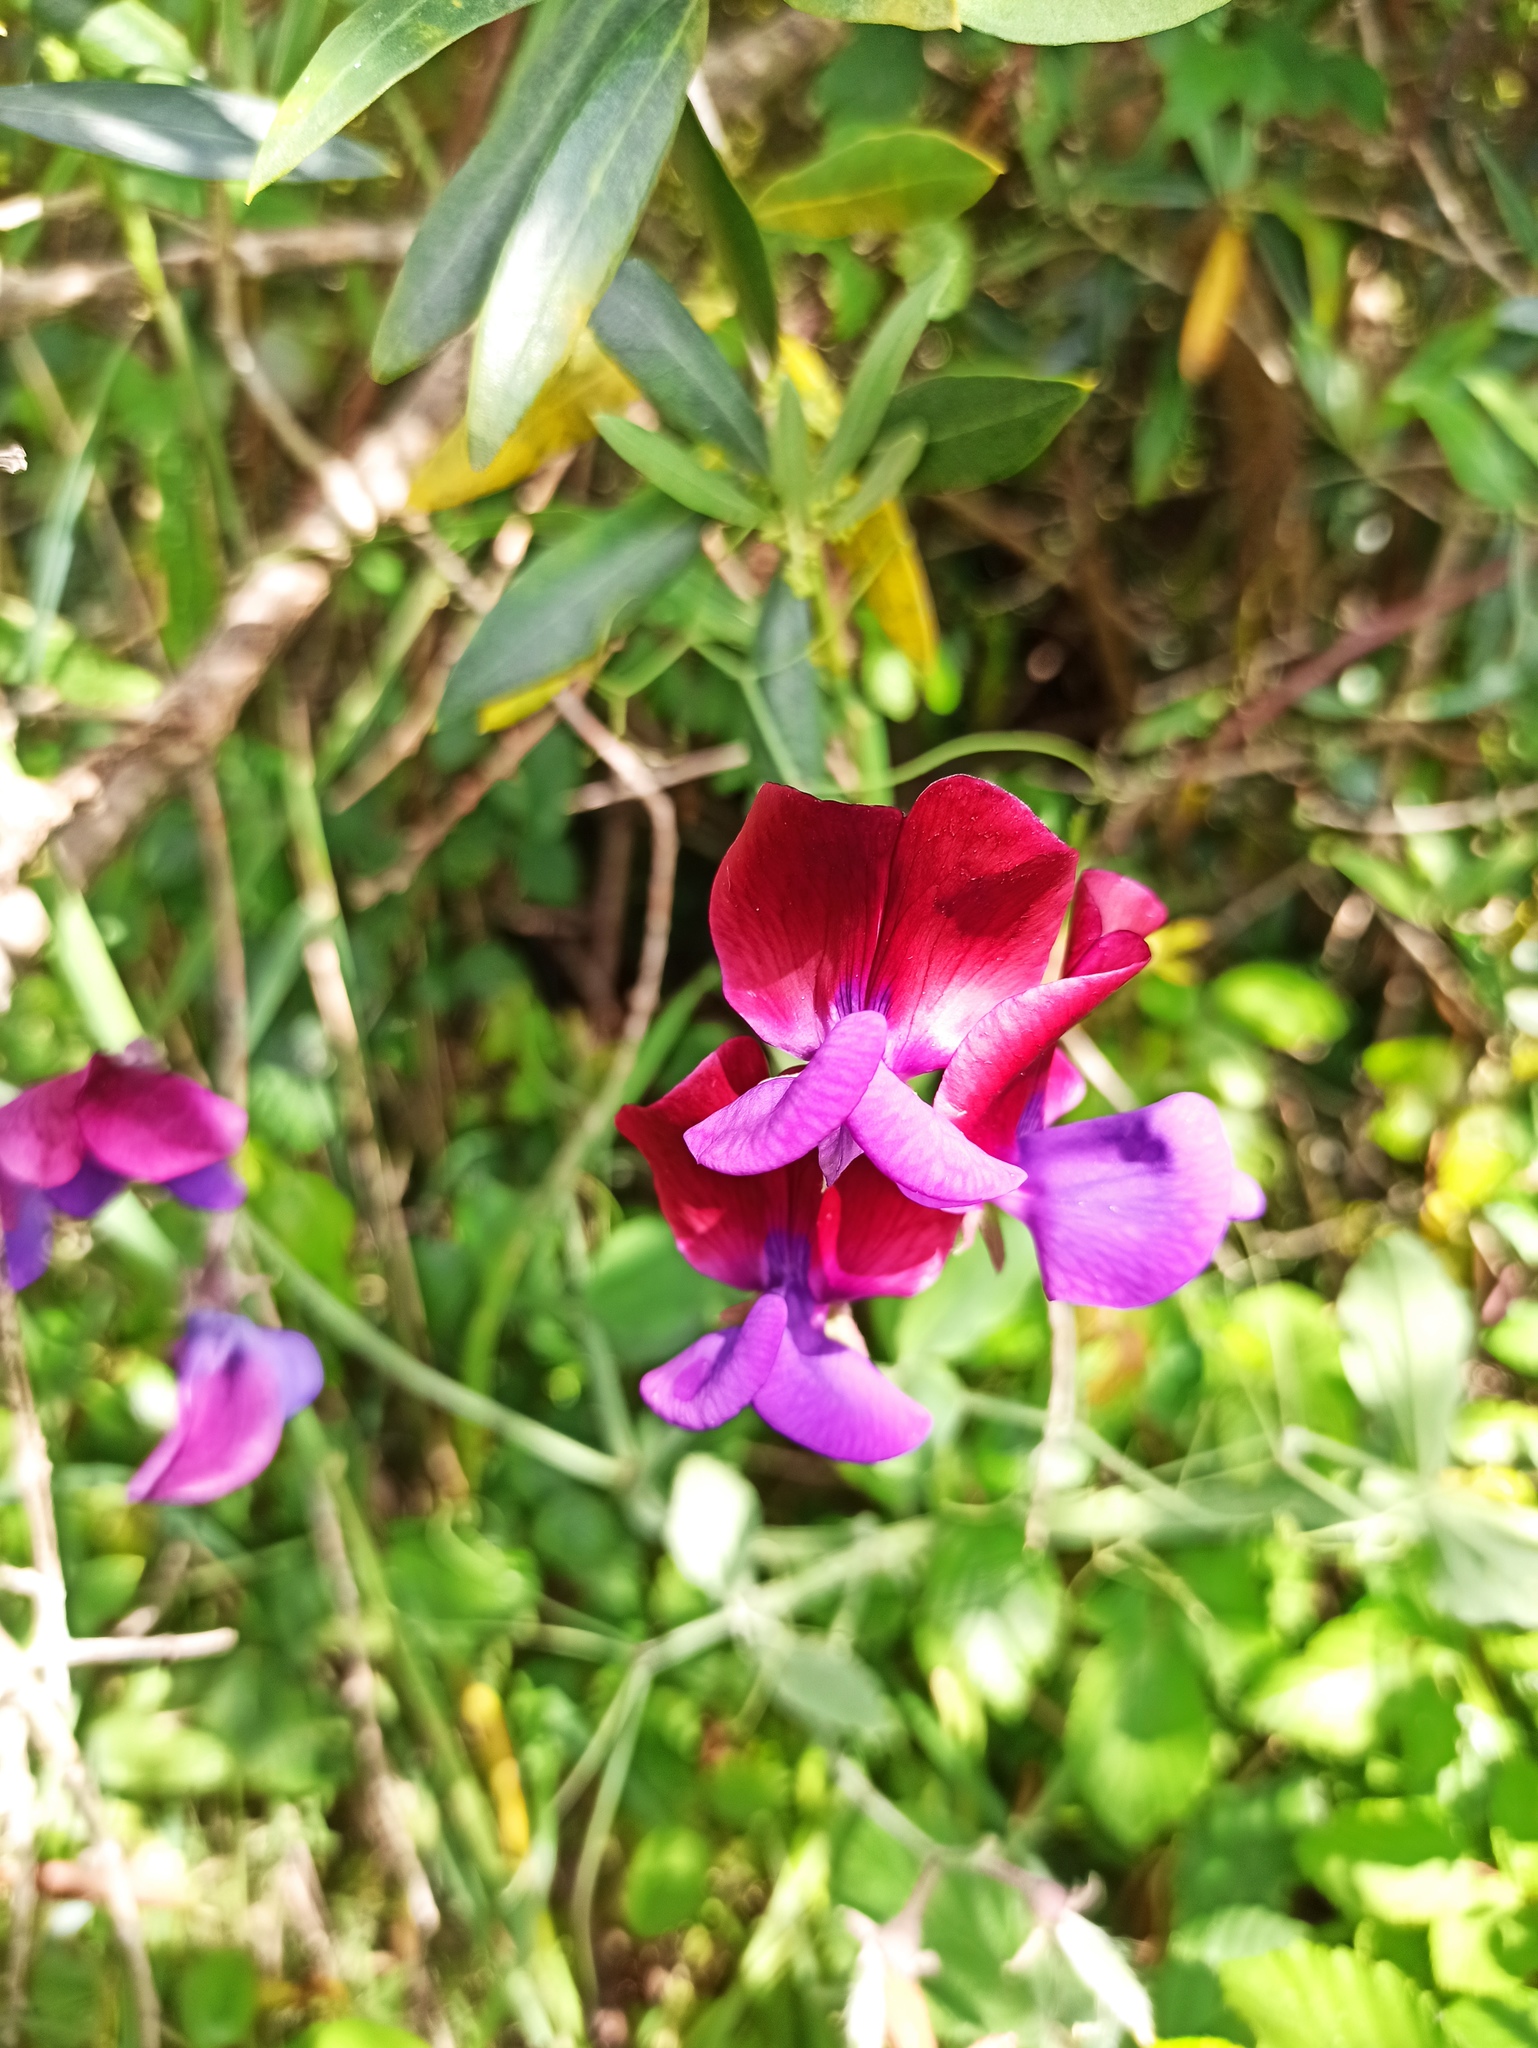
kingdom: Plantae
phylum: Tracheophyta
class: Magnoliopsida
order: Fabales
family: Fabaceae
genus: Lathyrus
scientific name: Lathyrus odoratus
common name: Sweet pea
